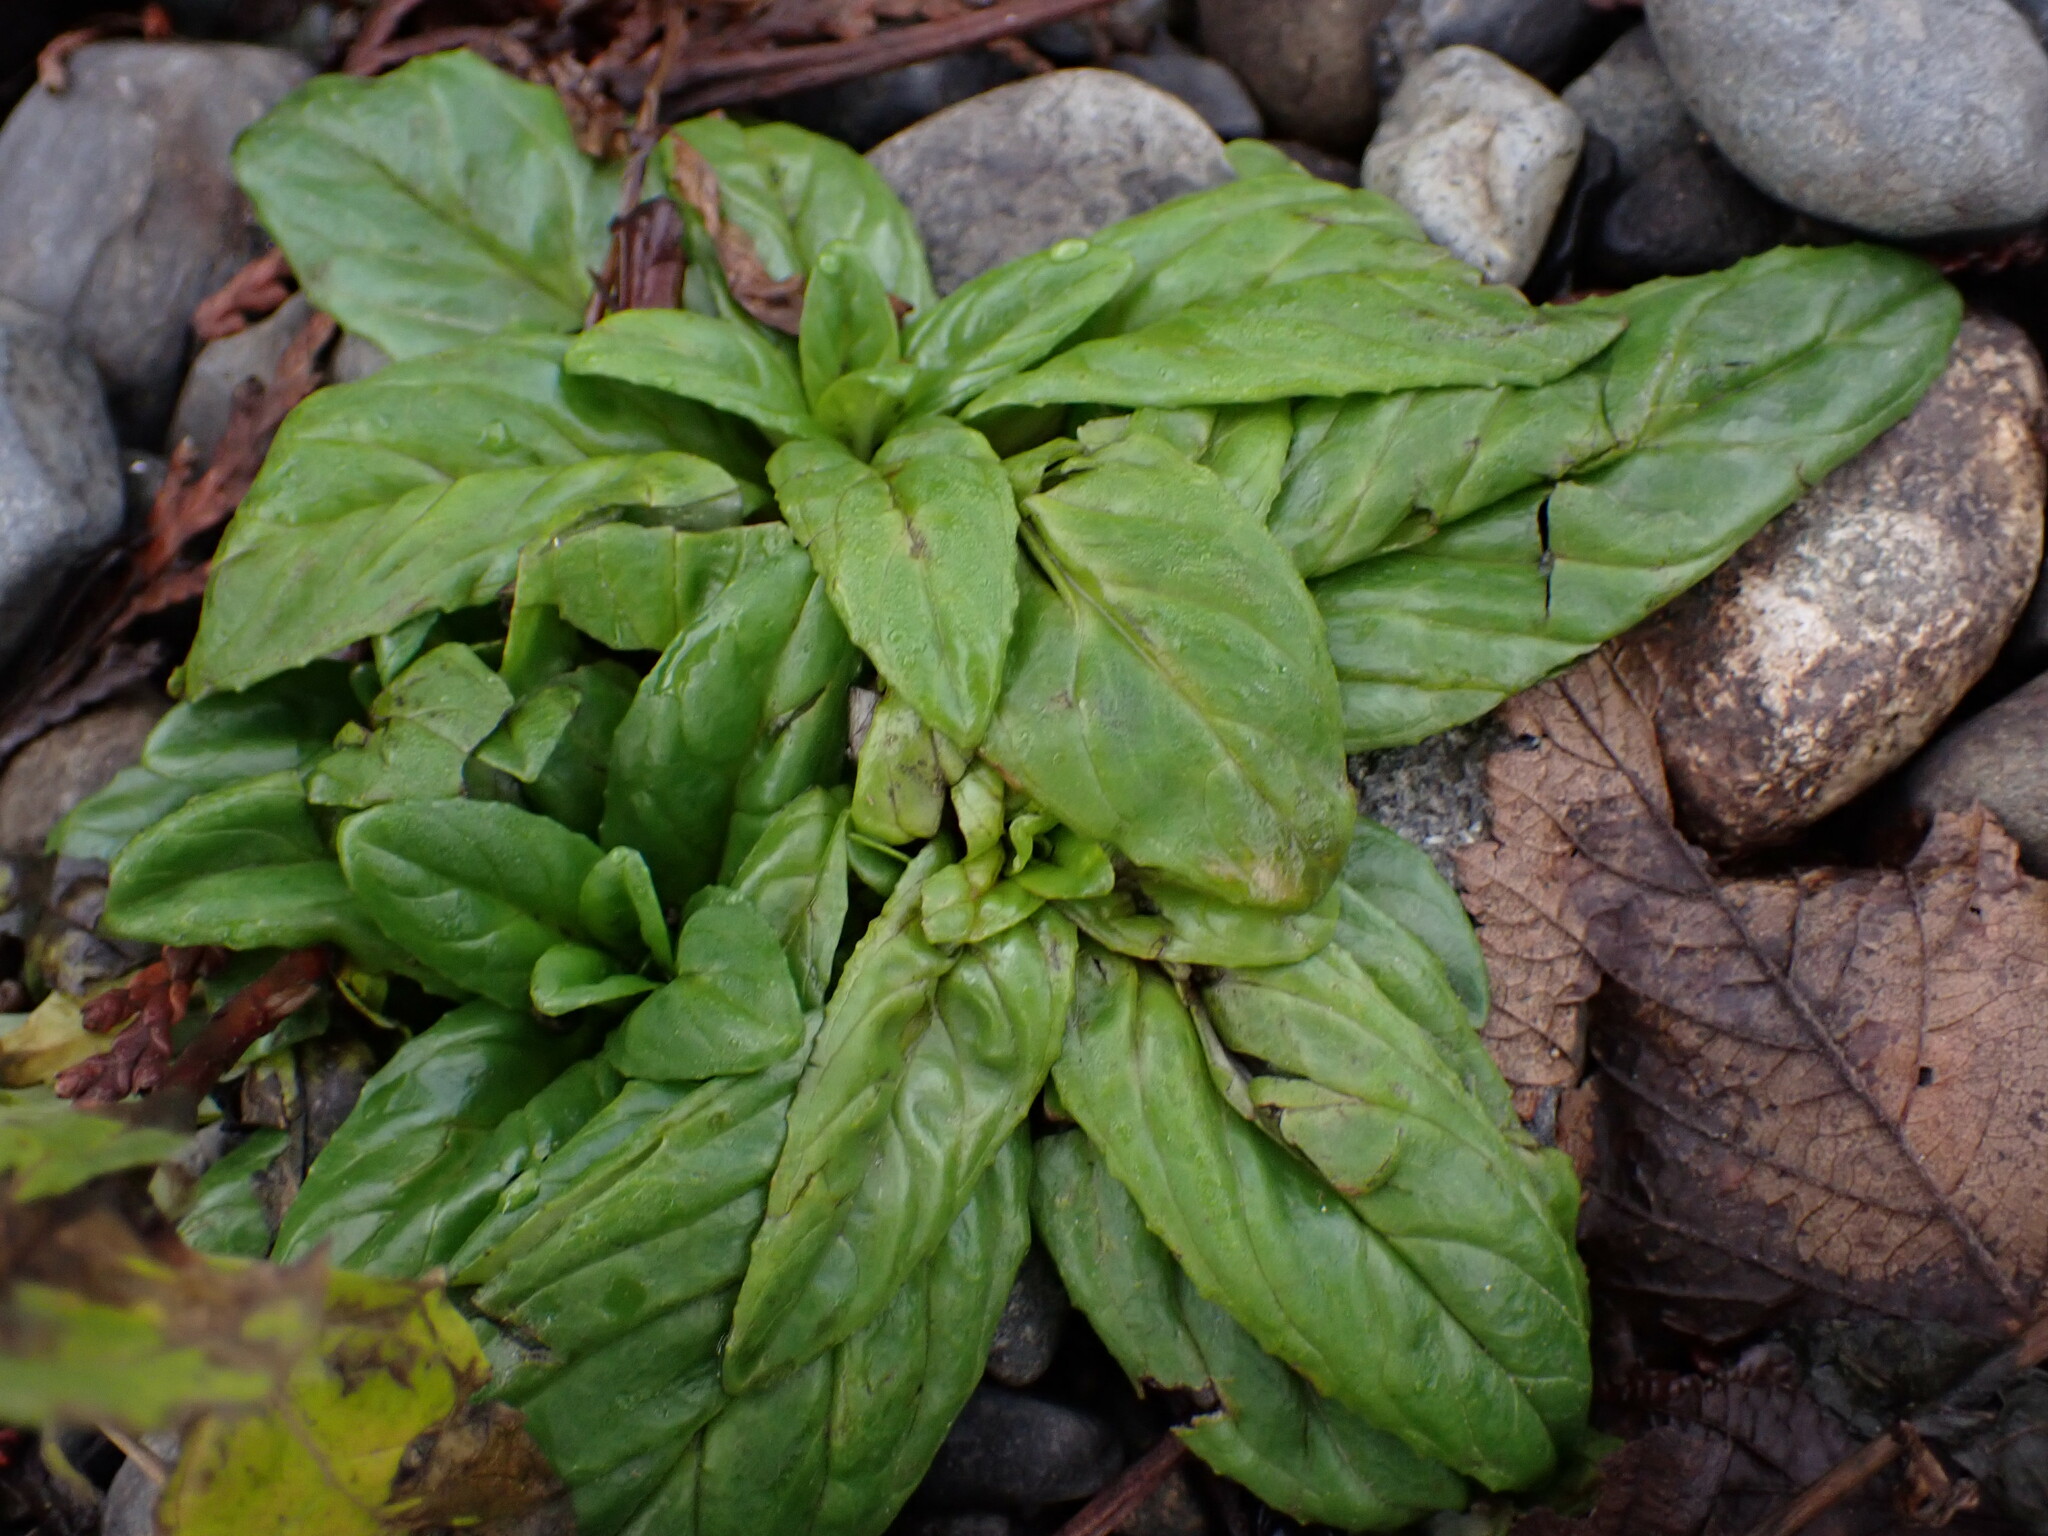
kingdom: Plantae
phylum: Tracheophyta
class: Magnoliopsida
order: Myrtales
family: Onagraceae
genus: Epilobium
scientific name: Epilobium ciliatum
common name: American willowherb
